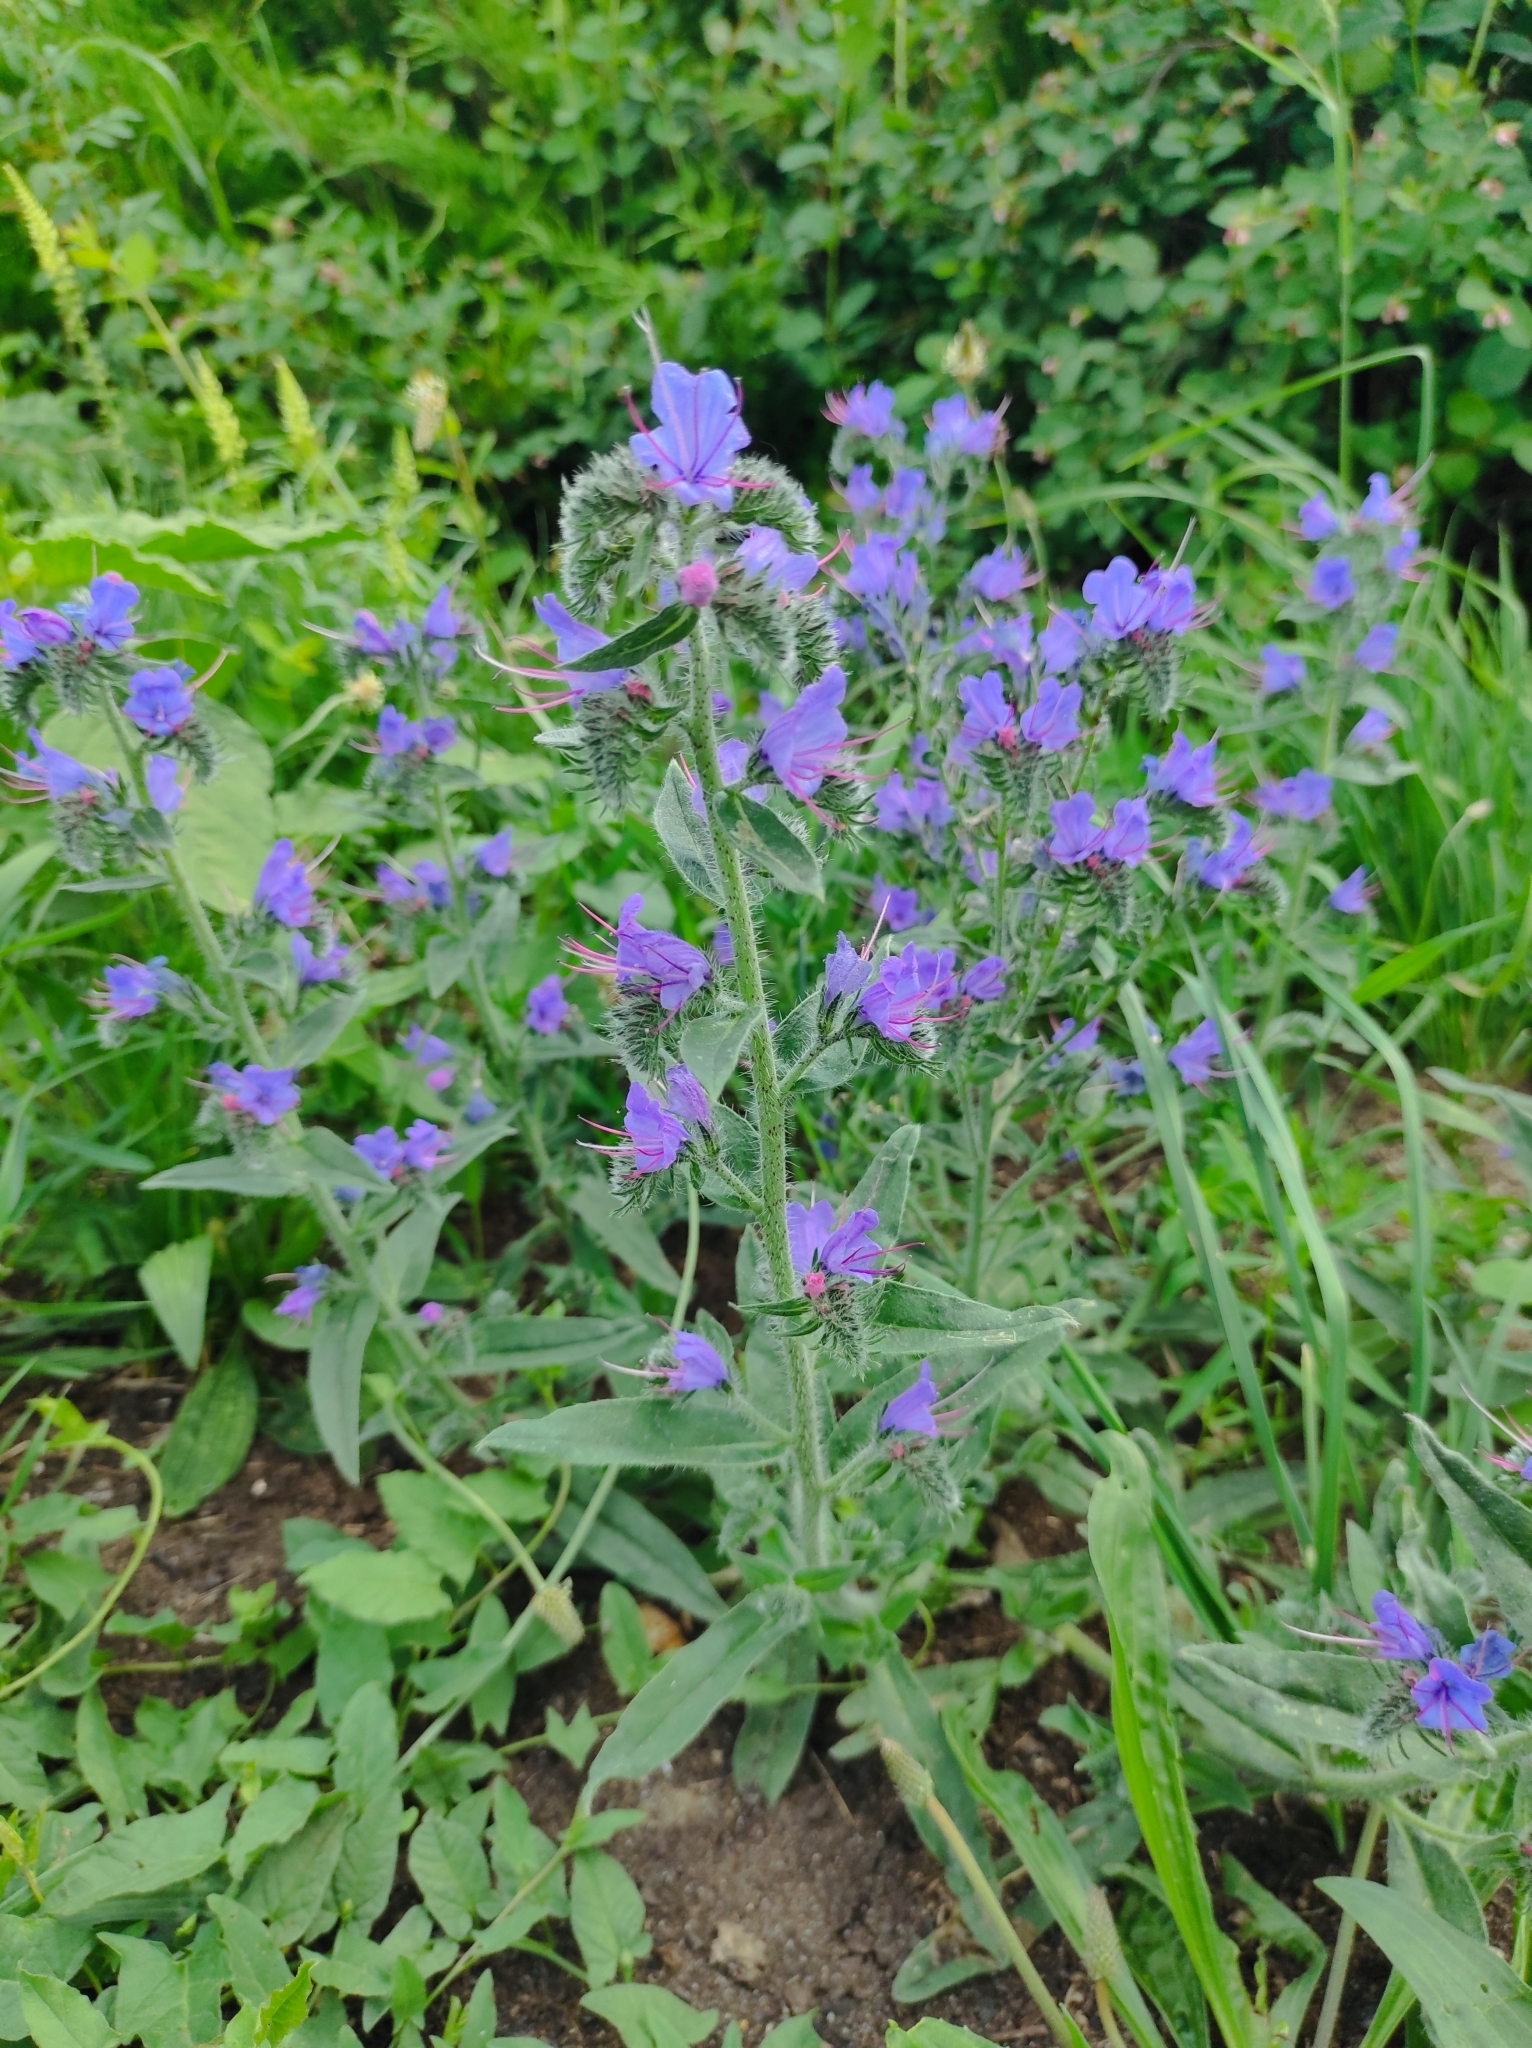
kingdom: Plantae
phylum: Tracheophyta
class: Magnoliopsida
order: Boraginales
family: Boraginaceae
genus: Echium
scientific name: Echium vulgare
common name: Common viper's bugloss
